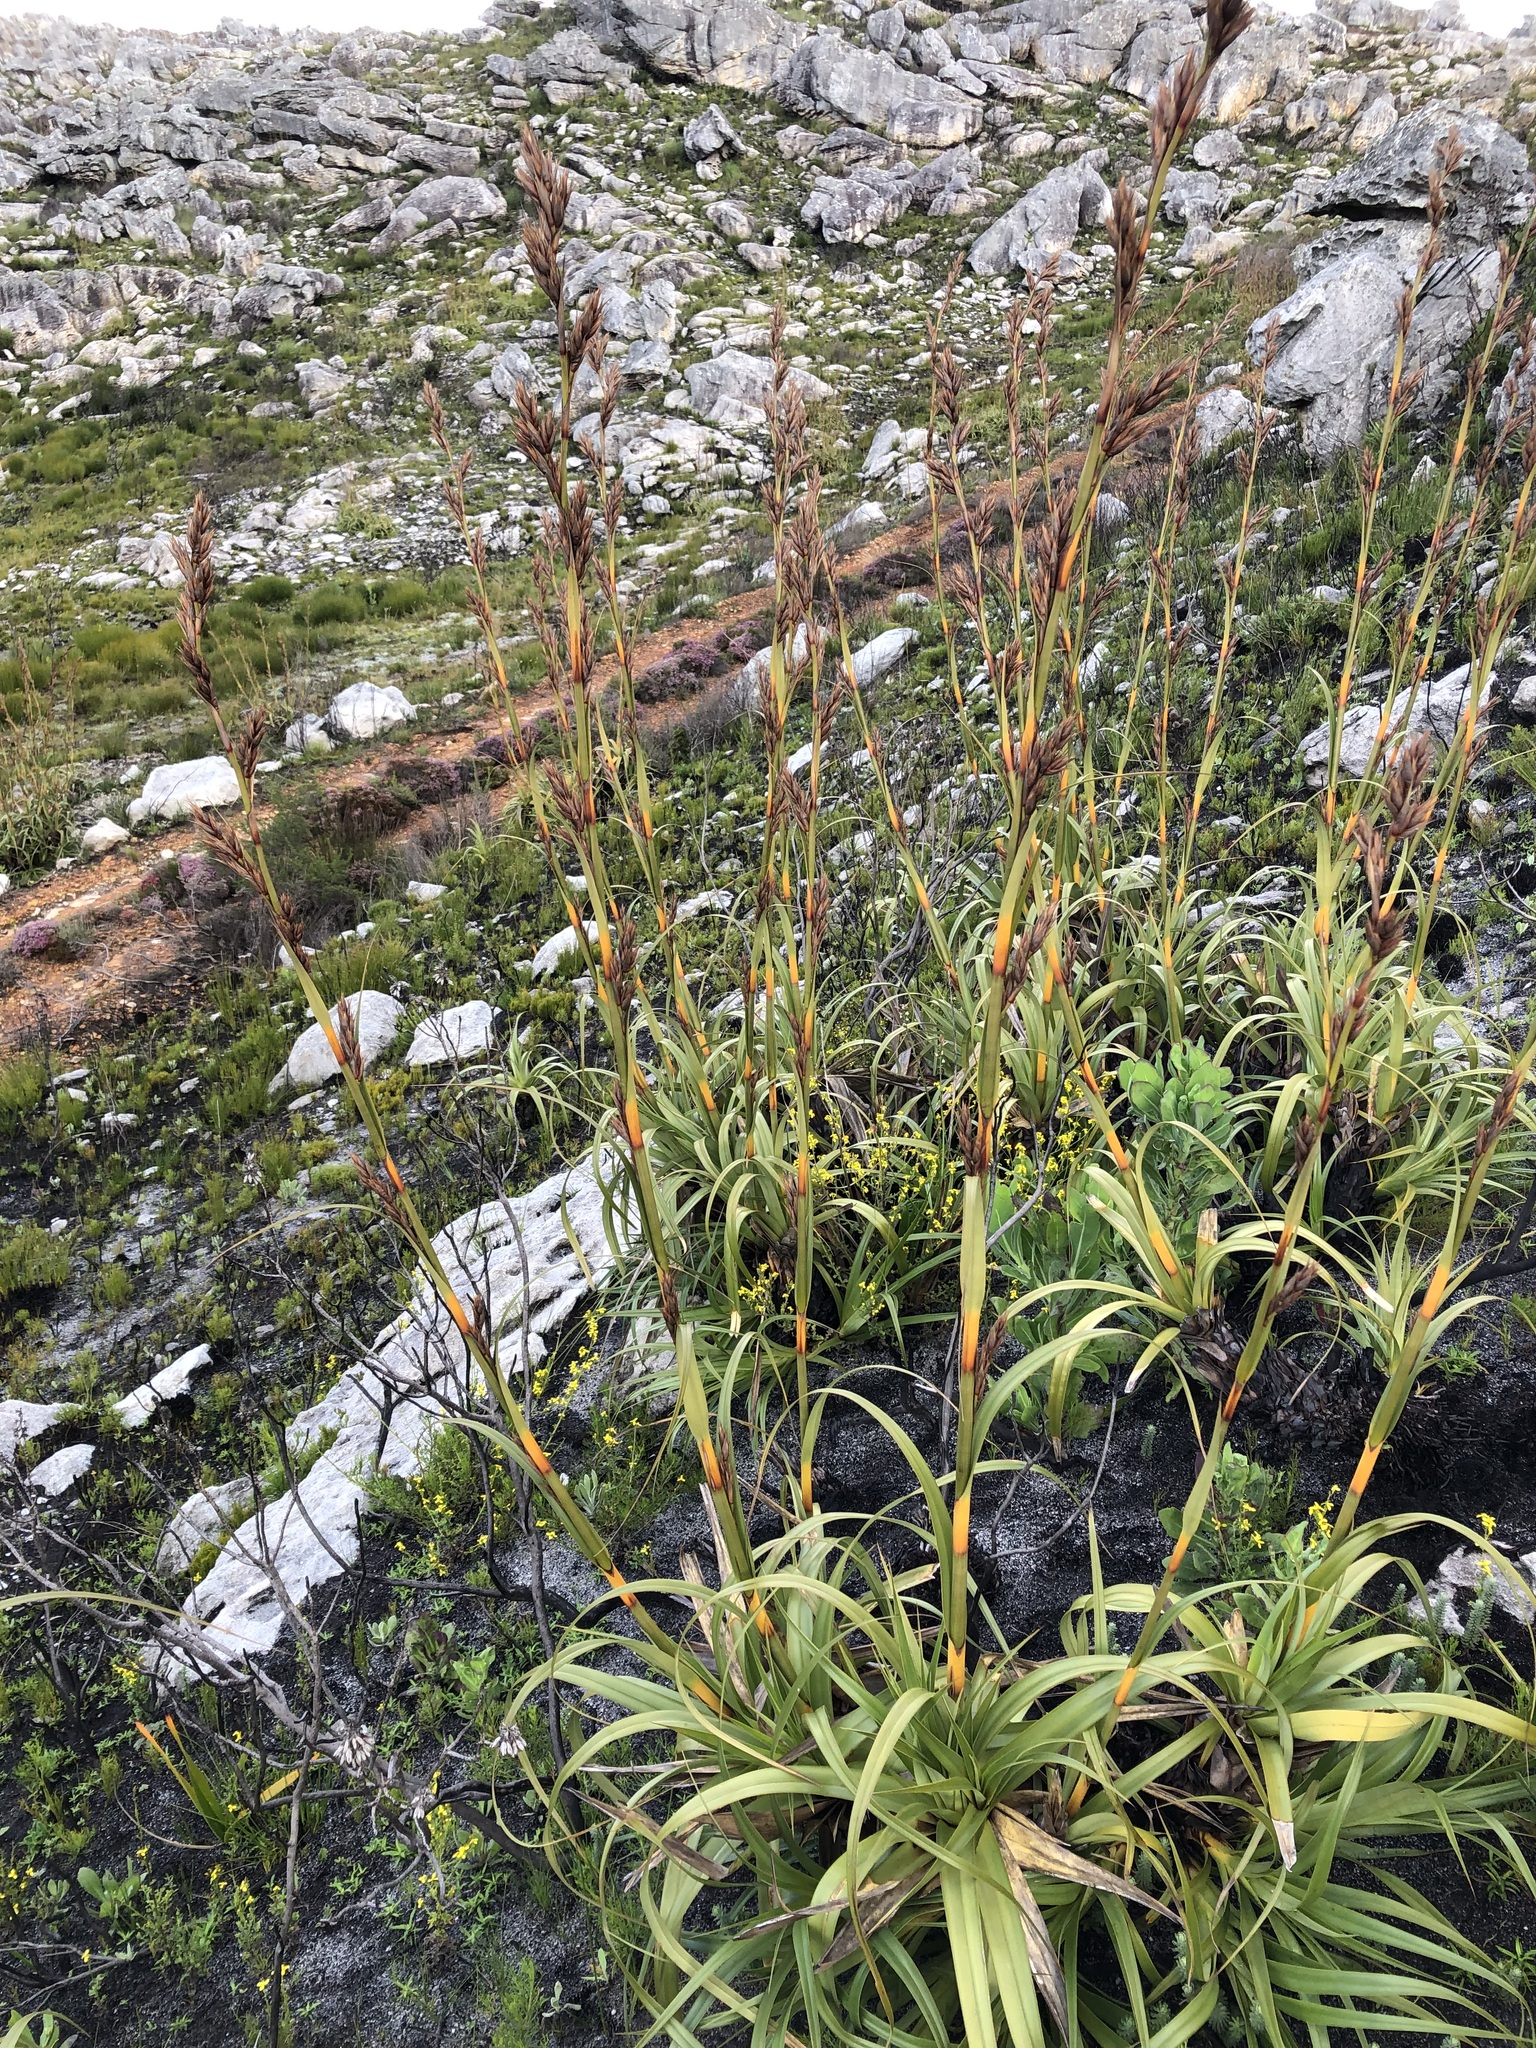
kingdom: Plantae
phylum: Tracheophyta
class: Liliopsida
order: Poales
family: Cyperaceae
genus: Tetraria
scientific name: Tetraria thermalis
